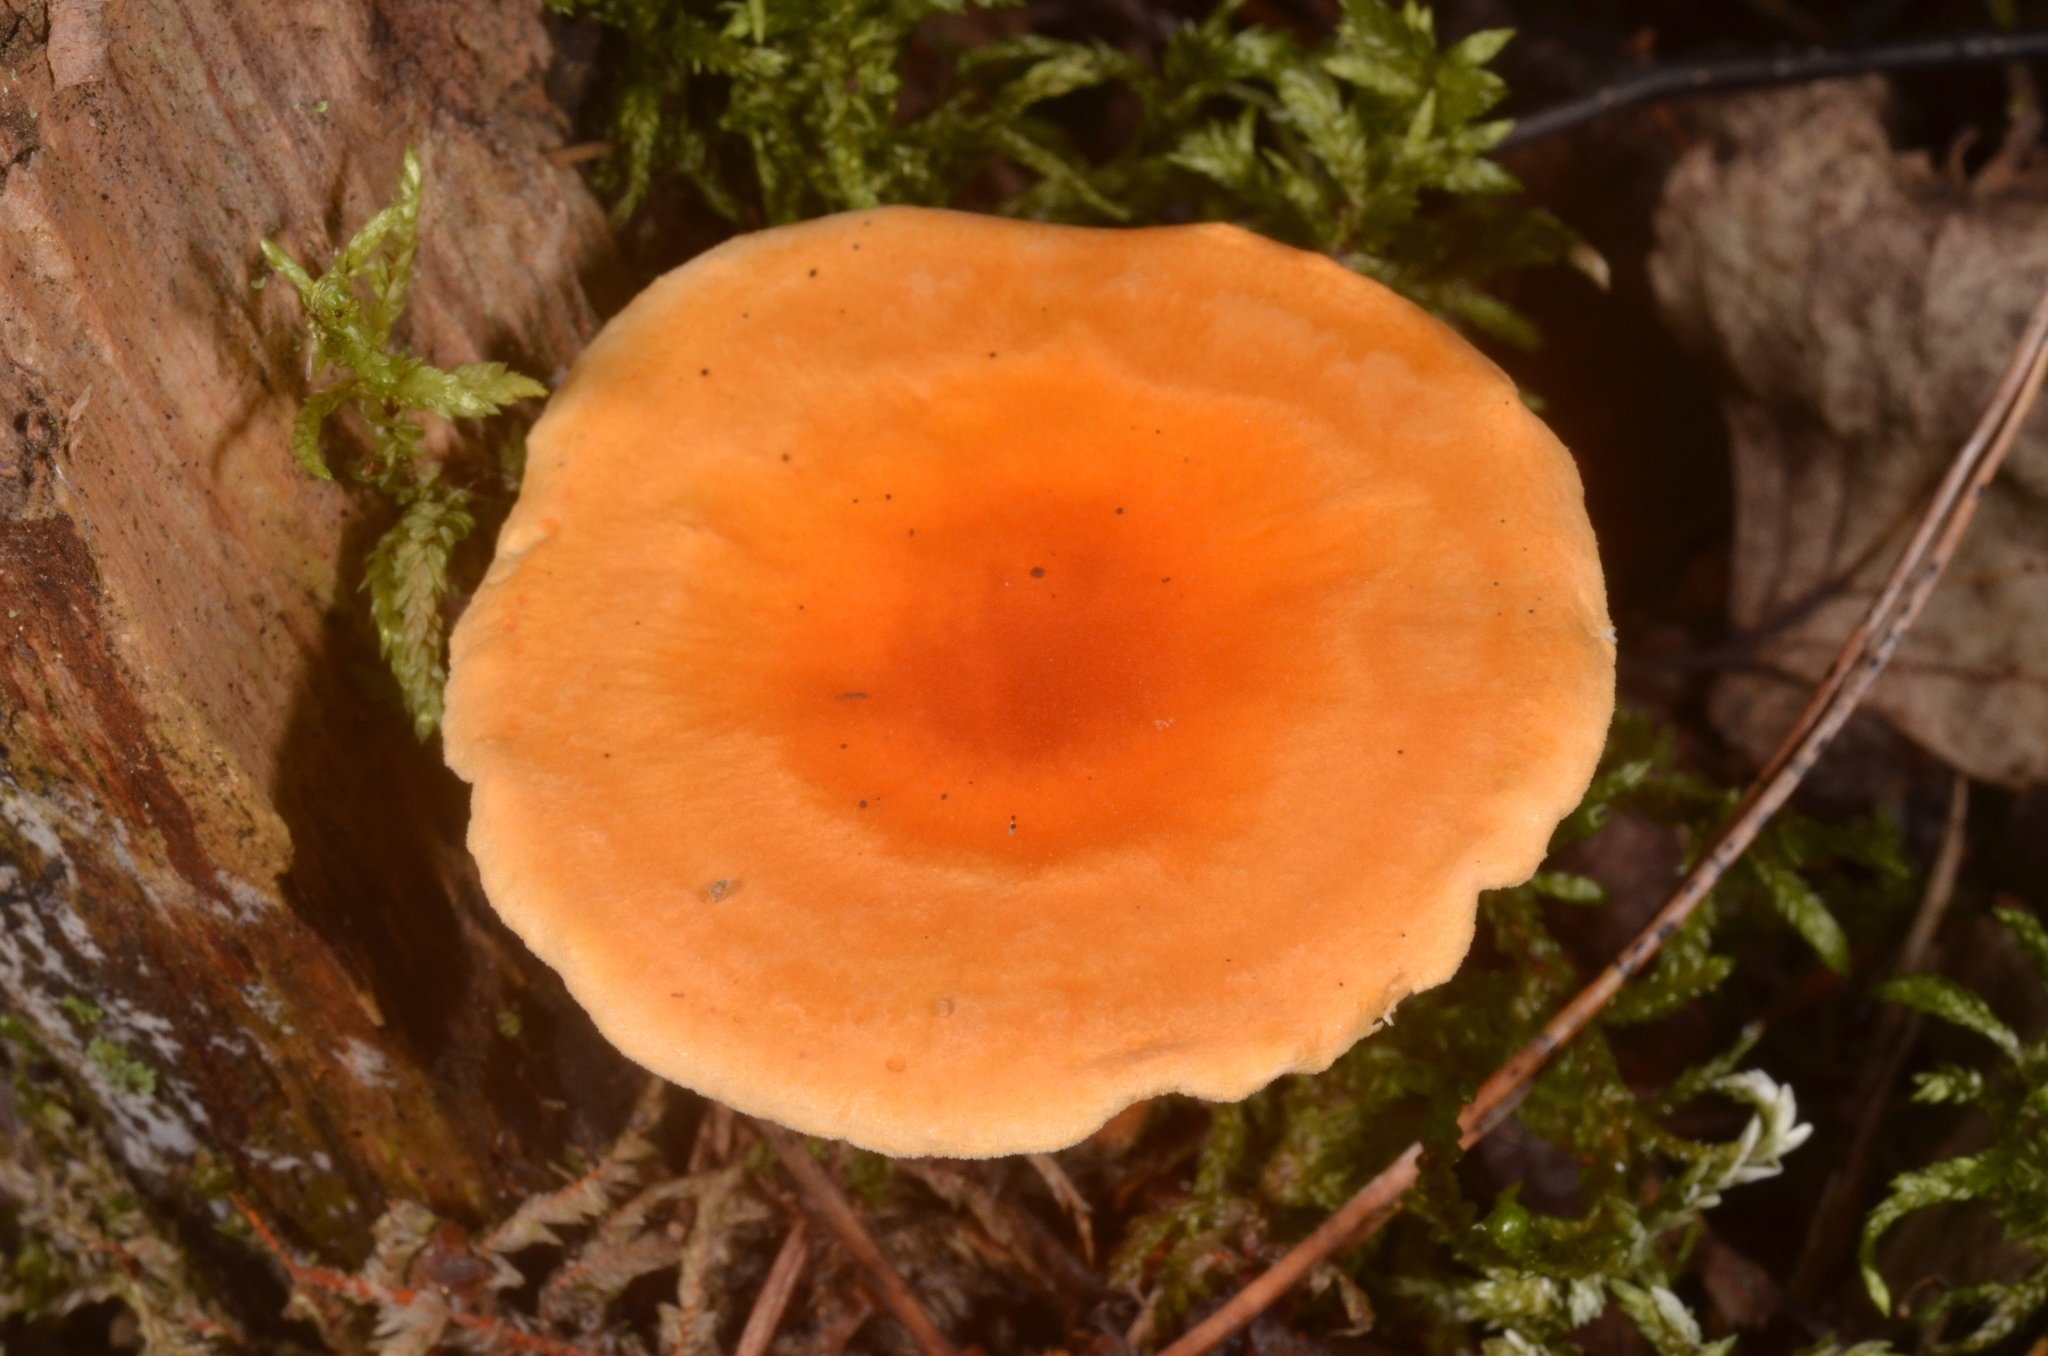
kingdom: Fungi
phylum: Basidiomycota
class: Agaricomycetes
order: Boletales
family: Hygrophoropsidaceae
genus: Hygrophoropsis
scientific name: Hygrophoropsis aurantiaca
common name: False chanterelle
